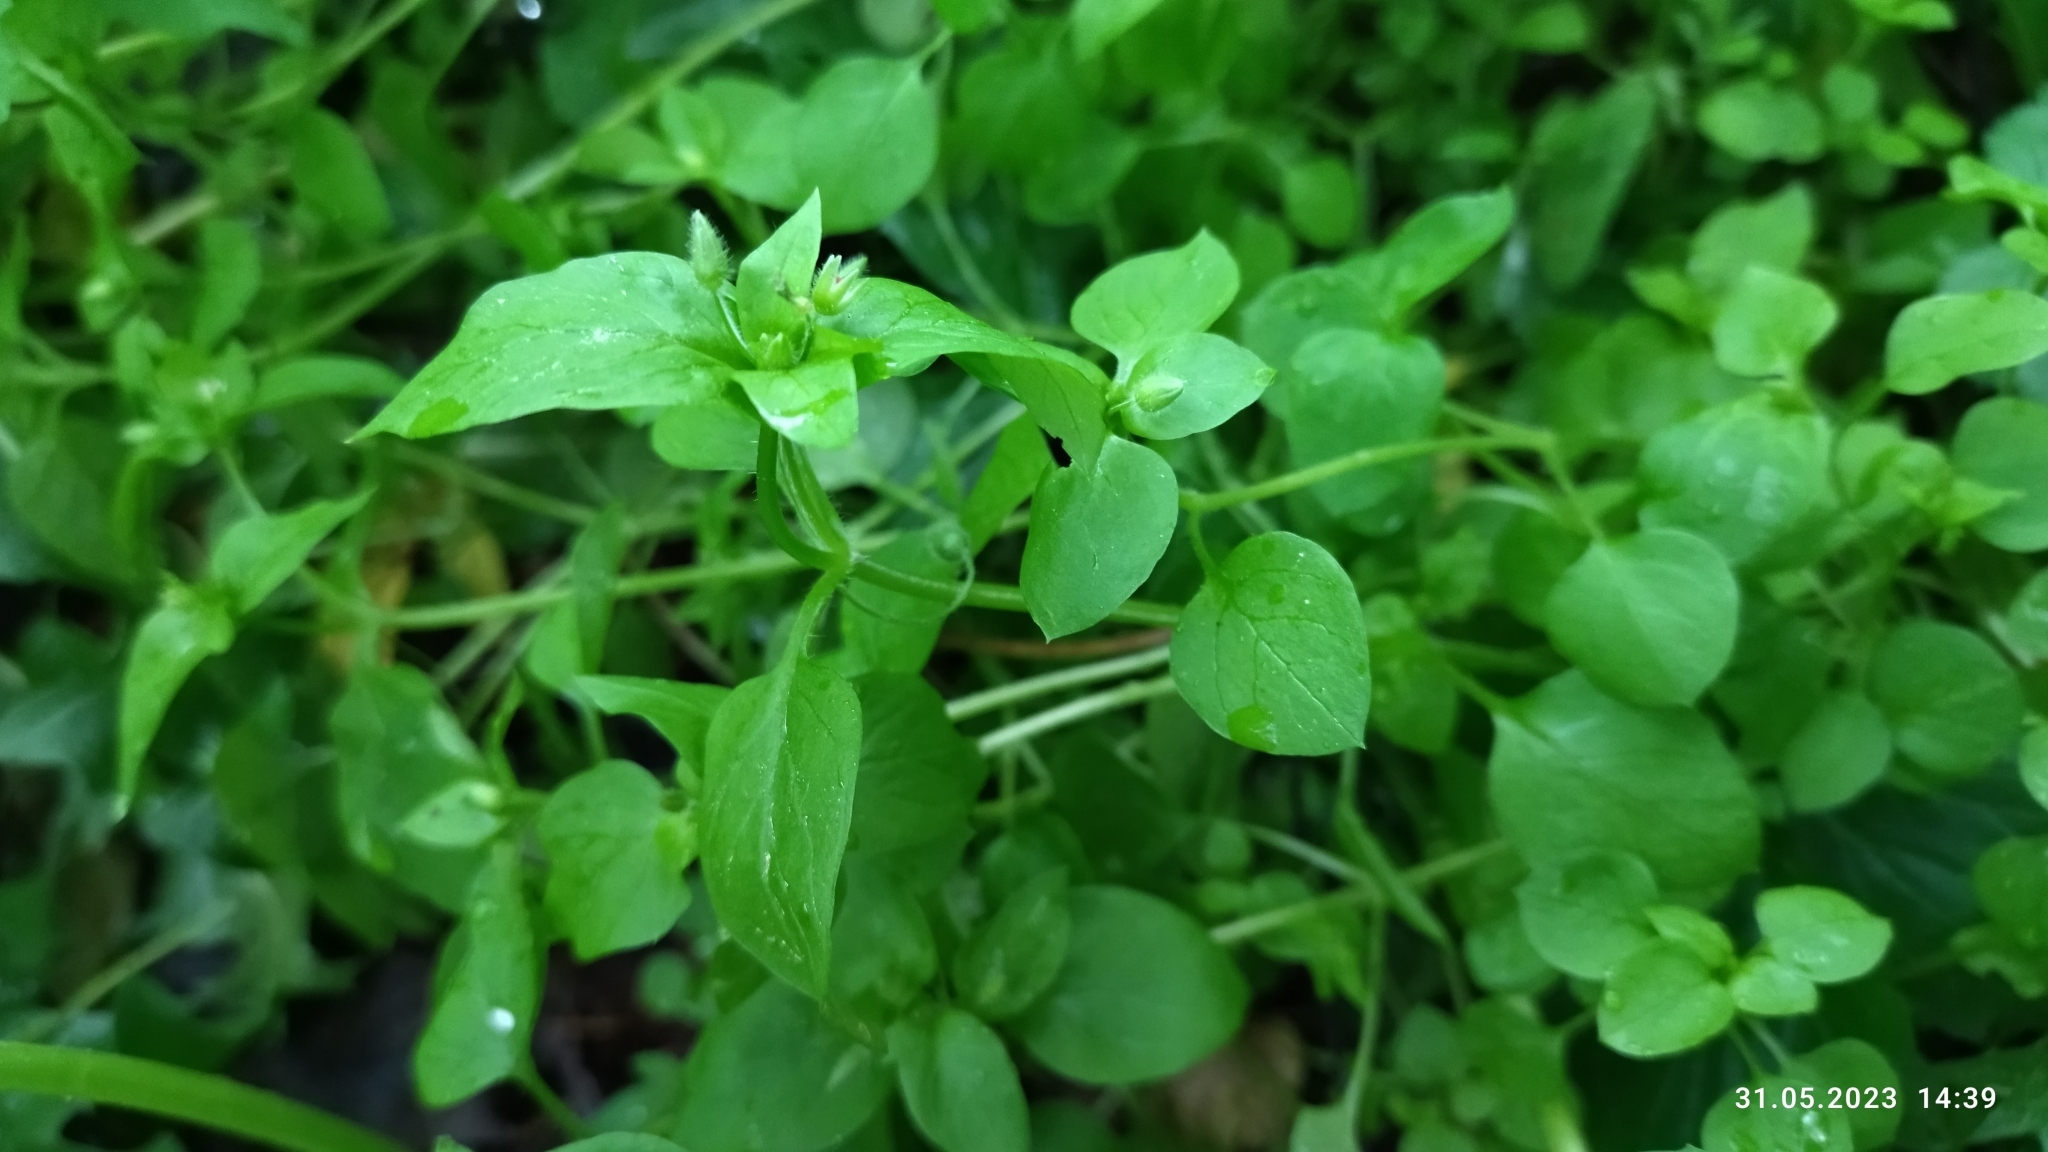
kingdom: Plantae
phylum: Tracheophyta
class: Magnoliopsida
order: Caryophyllales
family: Caryophyllaceae
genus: Stellaria
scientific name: Stellaria media
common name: Common chickweed
